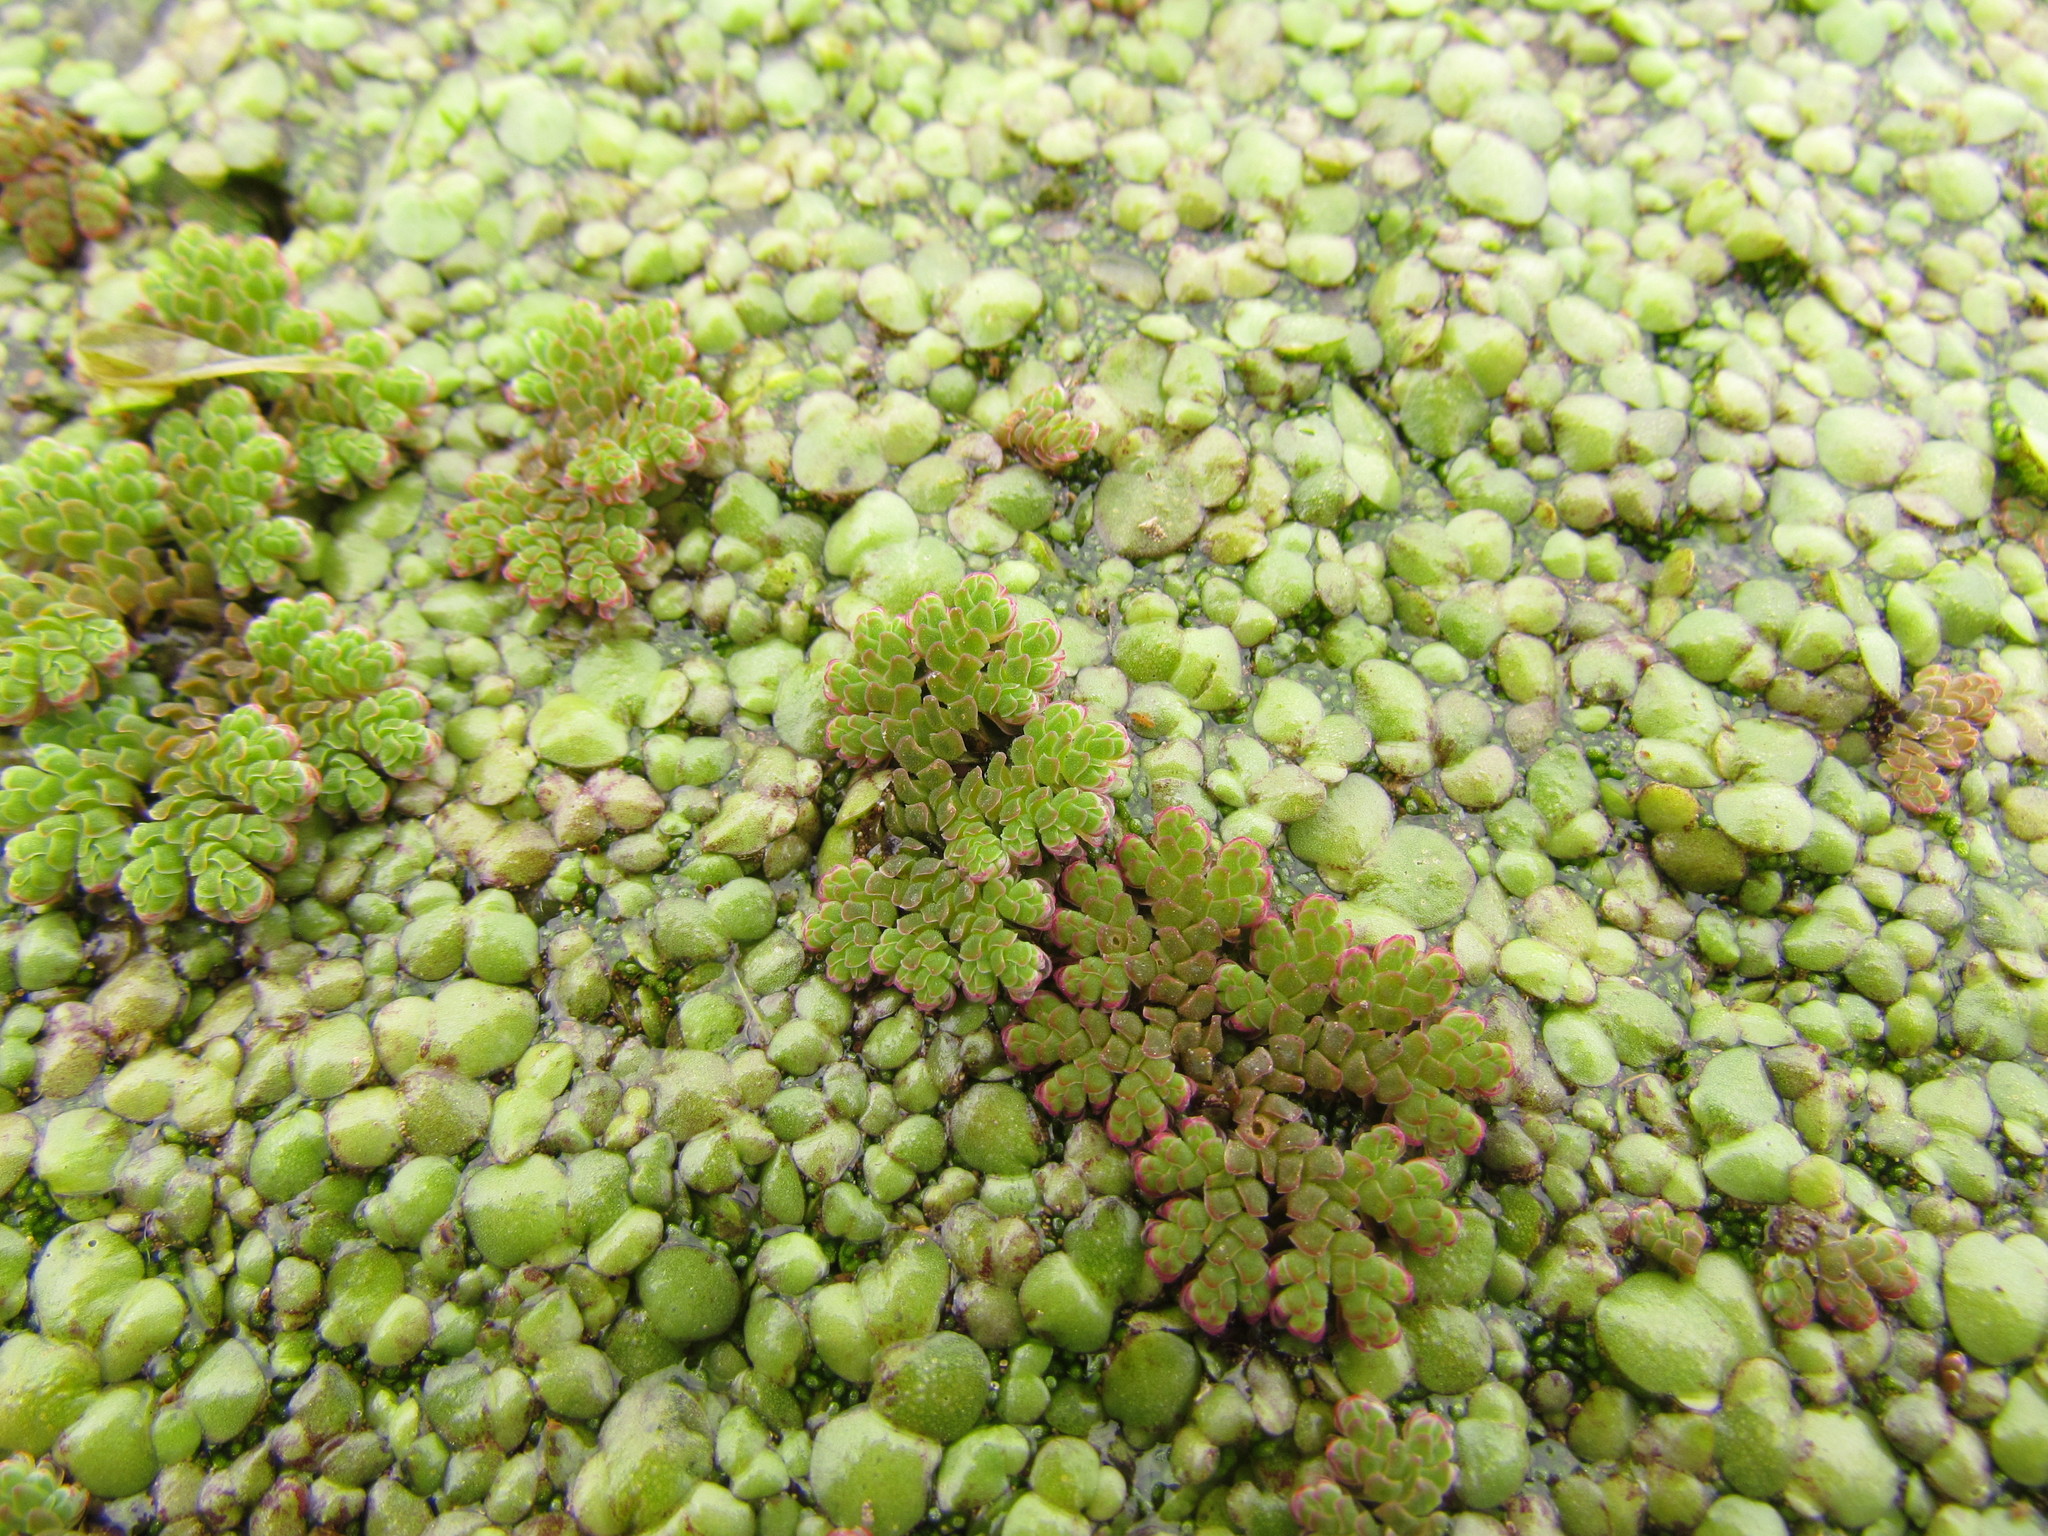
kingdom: Plantae
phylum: Tracheophyta
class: Polypodiopsida
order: Salviniales
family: Salviniaceae
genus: Azolla
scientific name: Azolla filiculoides
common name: Water fern
